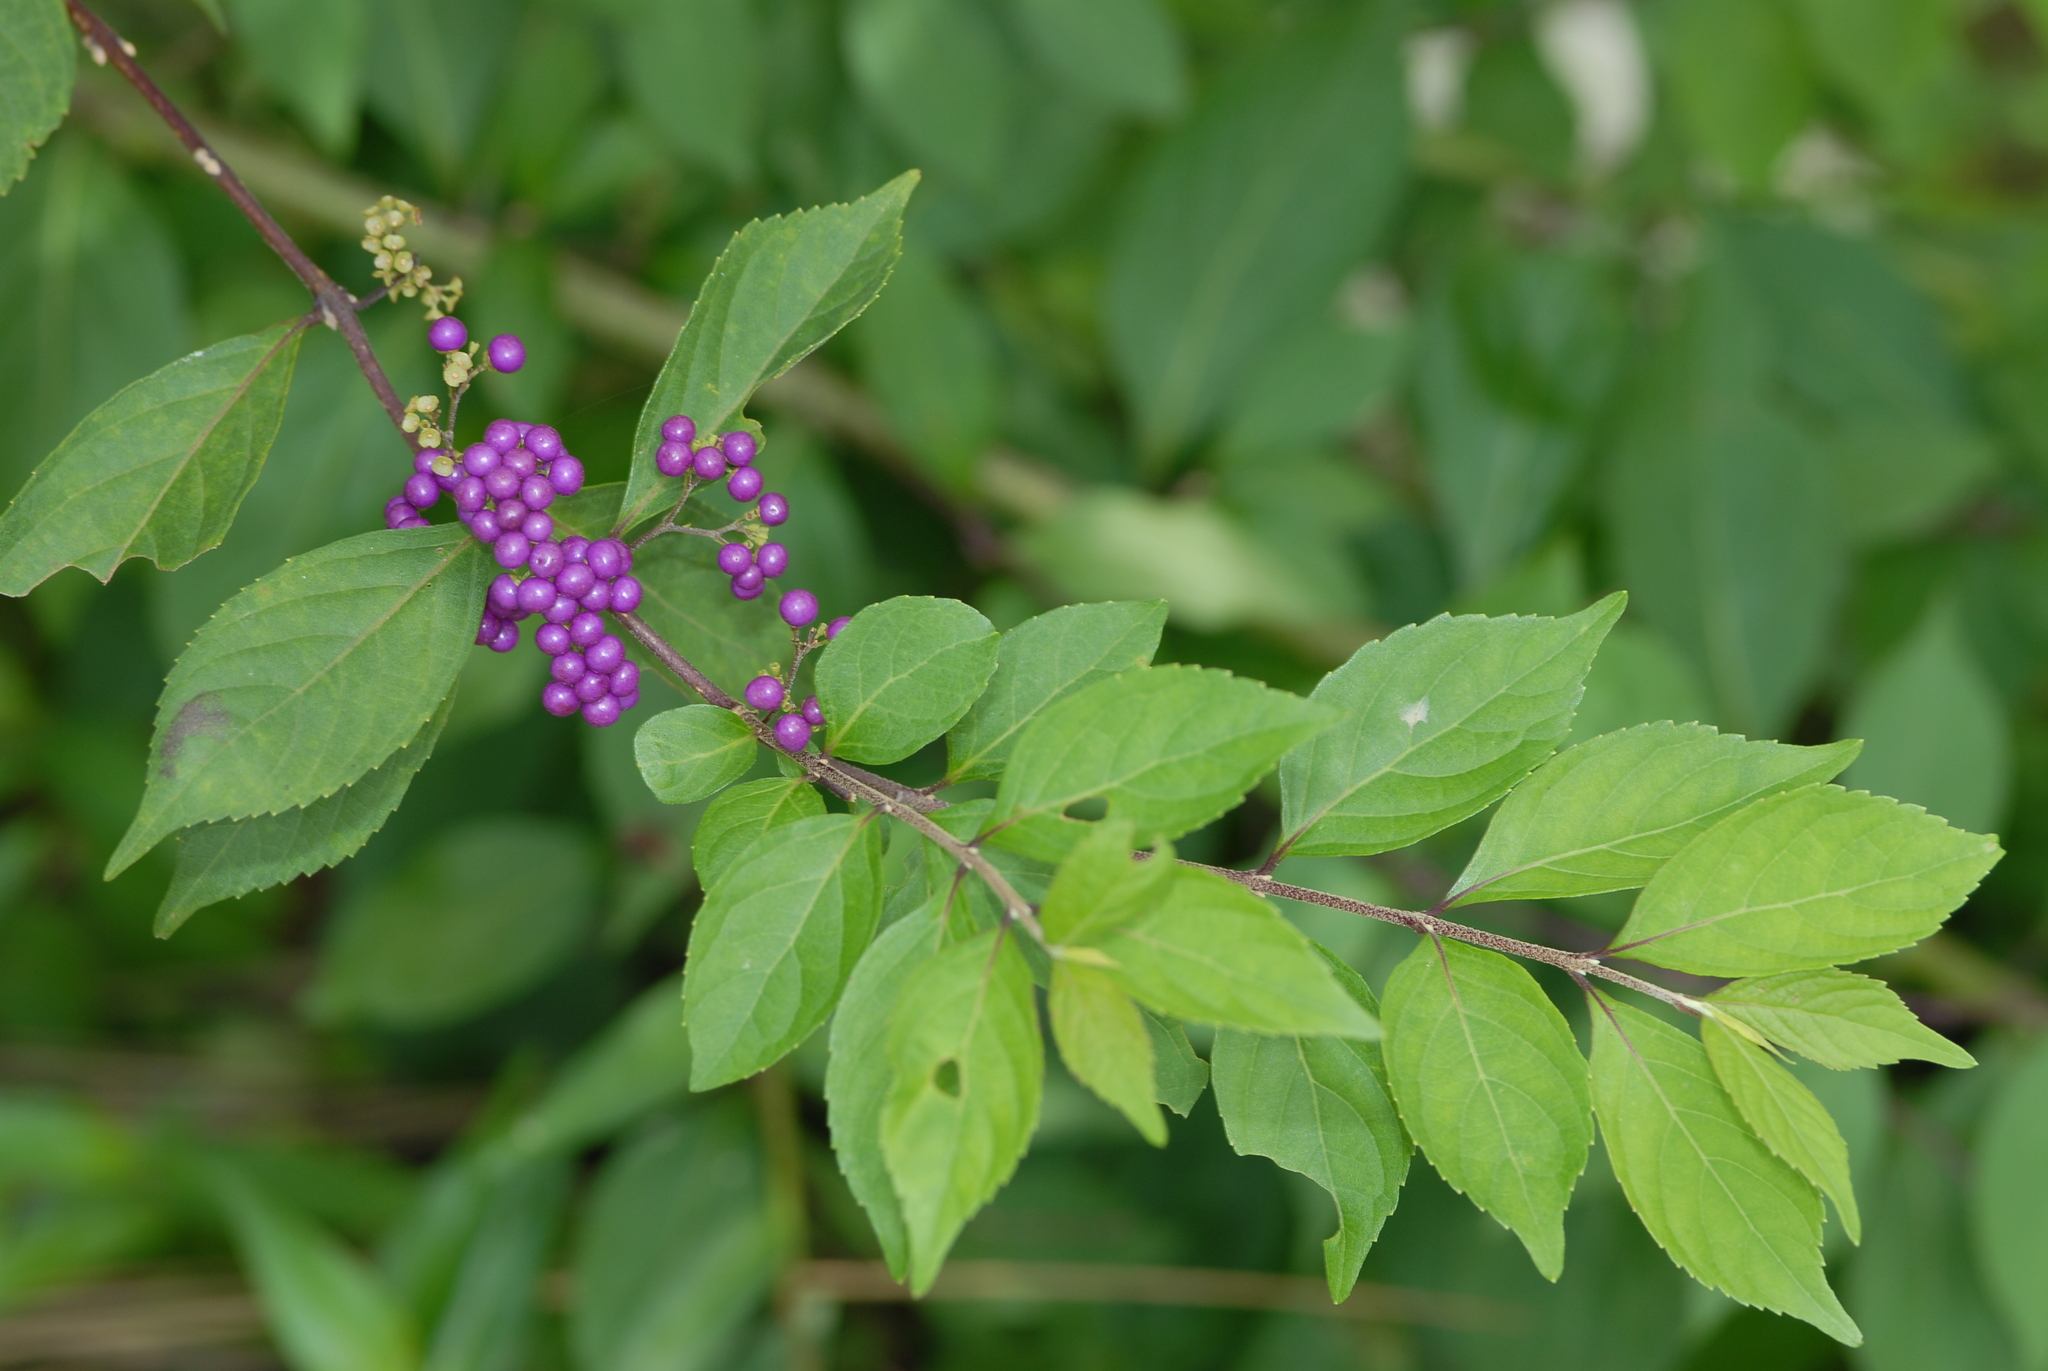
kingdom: Plantae
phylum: Tracheophyta
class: Magnoliopsida
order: Lamiales
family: Lamiaceae
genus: Callicarpa
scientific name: Callicarpa dichotoma
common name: Purple beauty-berry
